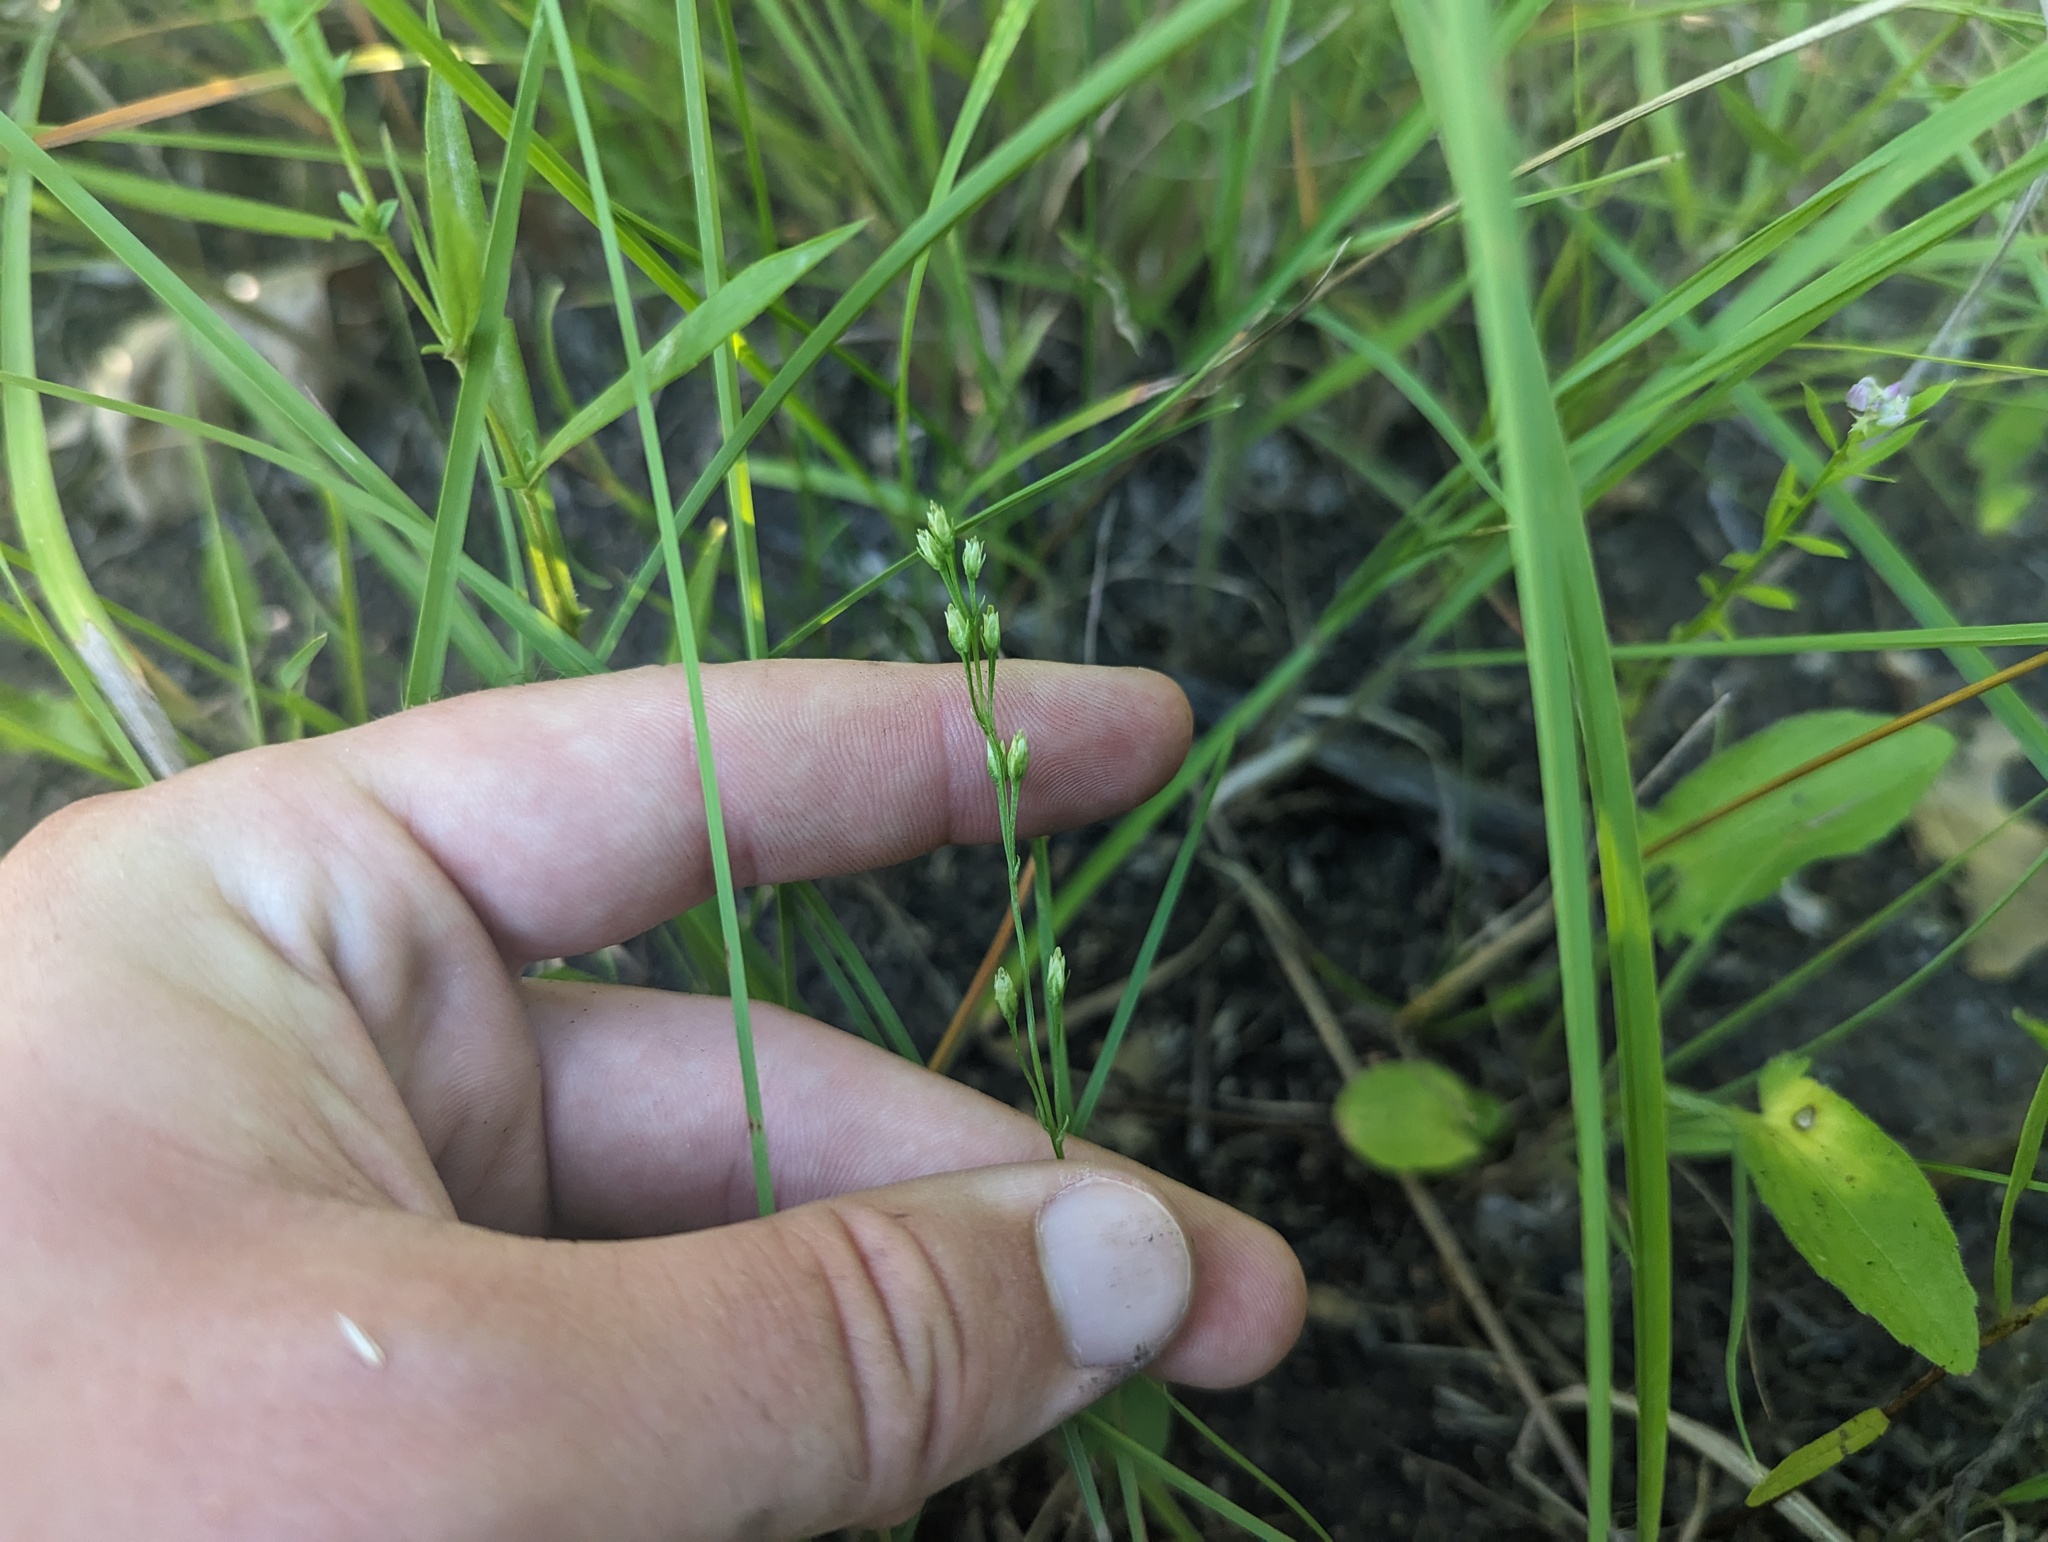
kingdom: Plantae
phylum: Tracheophyta
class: Magnoliopsida
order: Gentianales
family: Gentianaceae
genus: Bartonia
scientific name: Bartonia virginica
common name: Yellow bartonia
